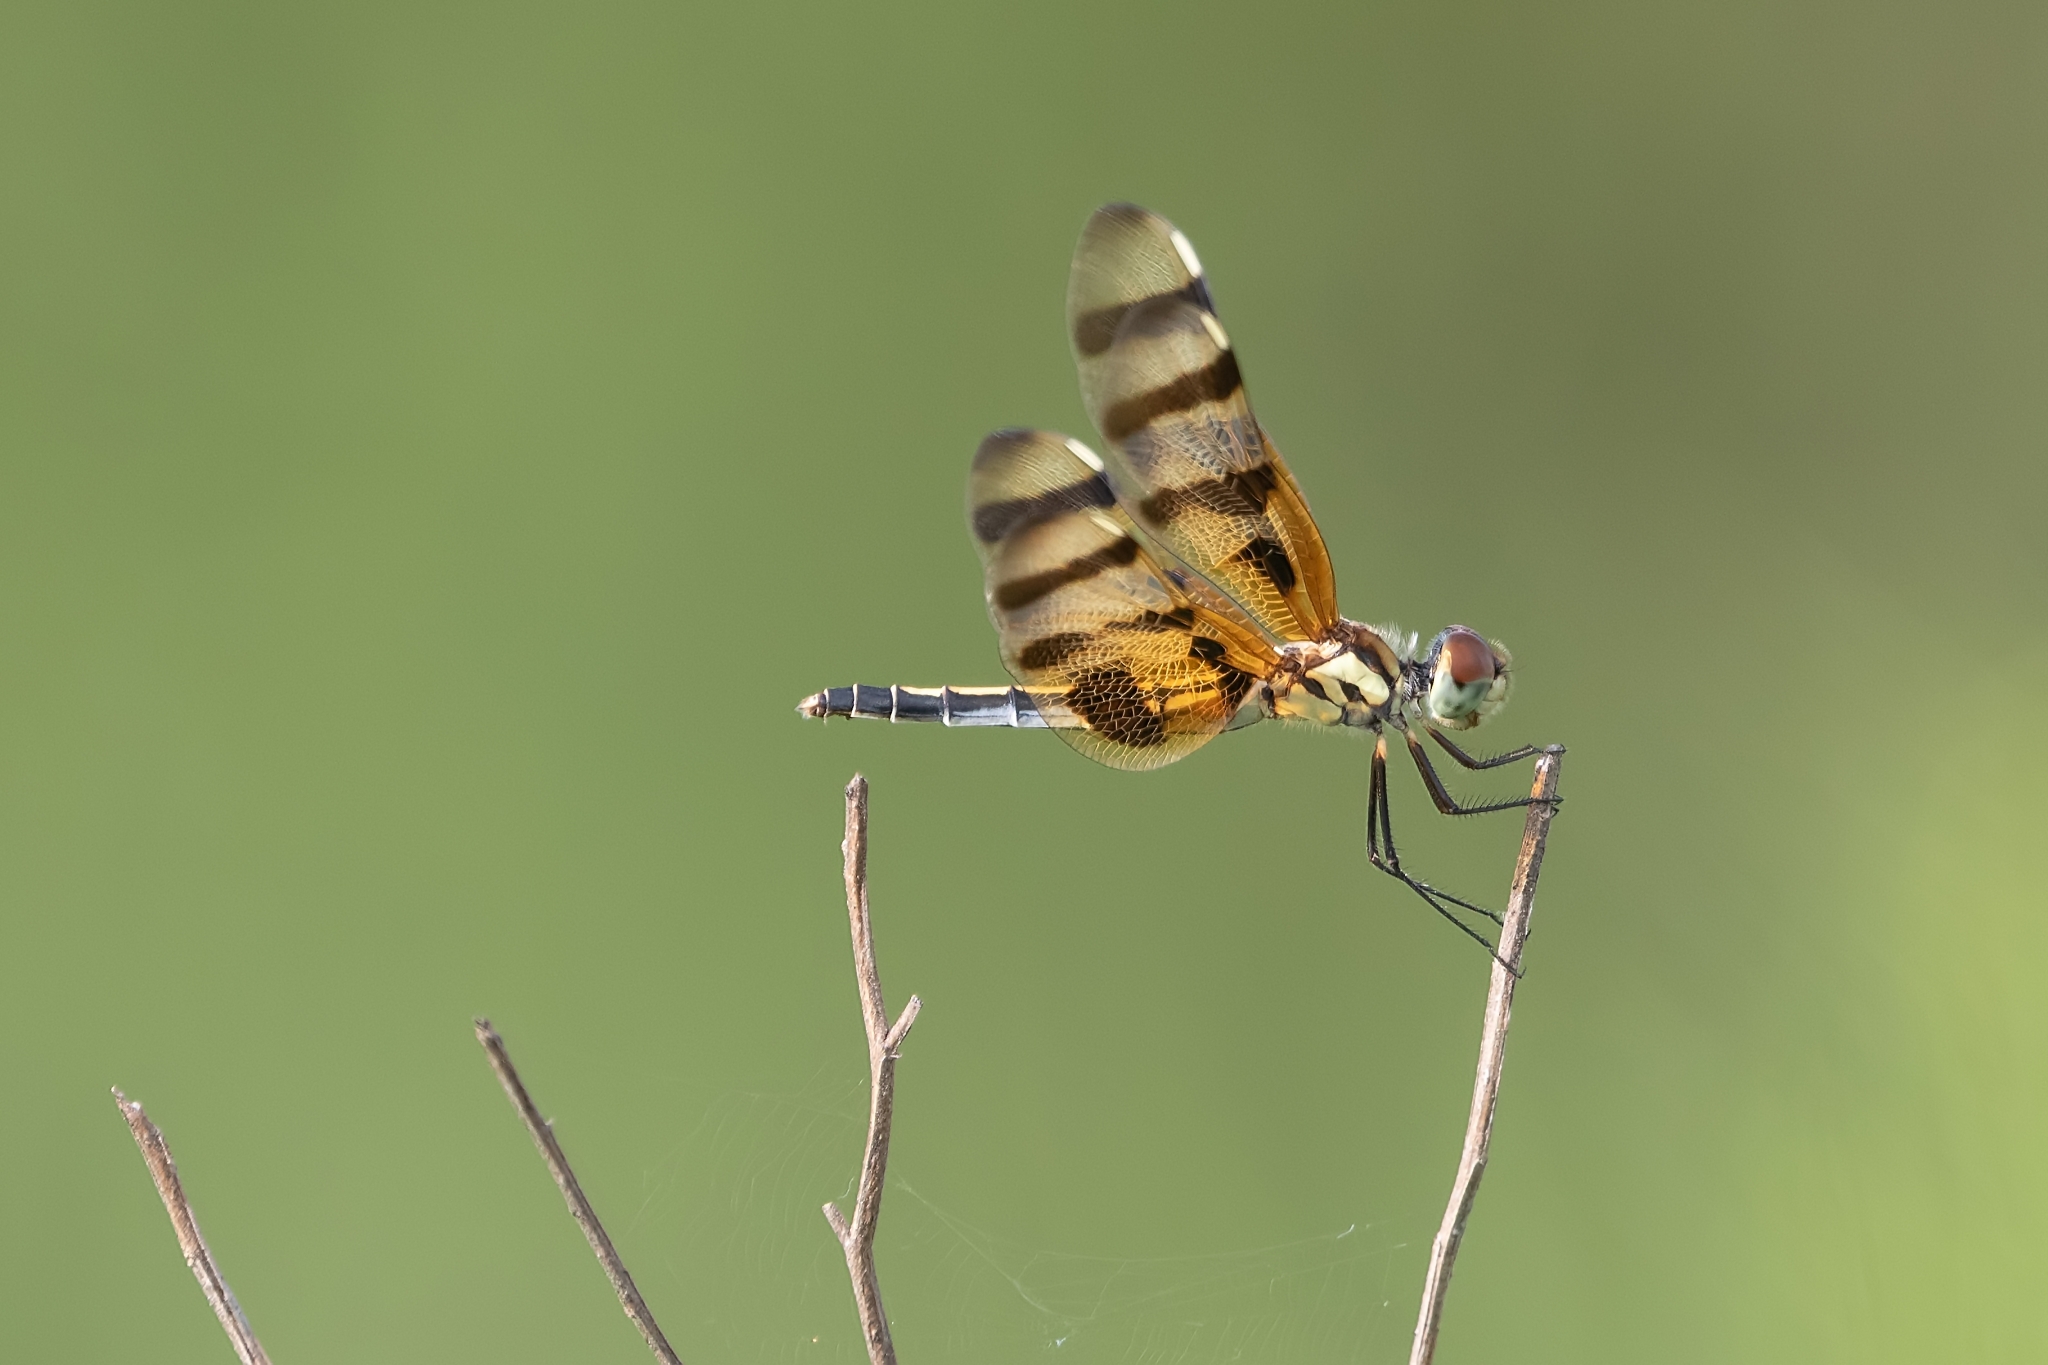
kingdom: Animalia
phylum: Arthropoda
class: Insecta
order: Odonata
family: Libellulidae
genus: Celithemis
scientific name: Celithemis eponina
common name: Halloween pennant
